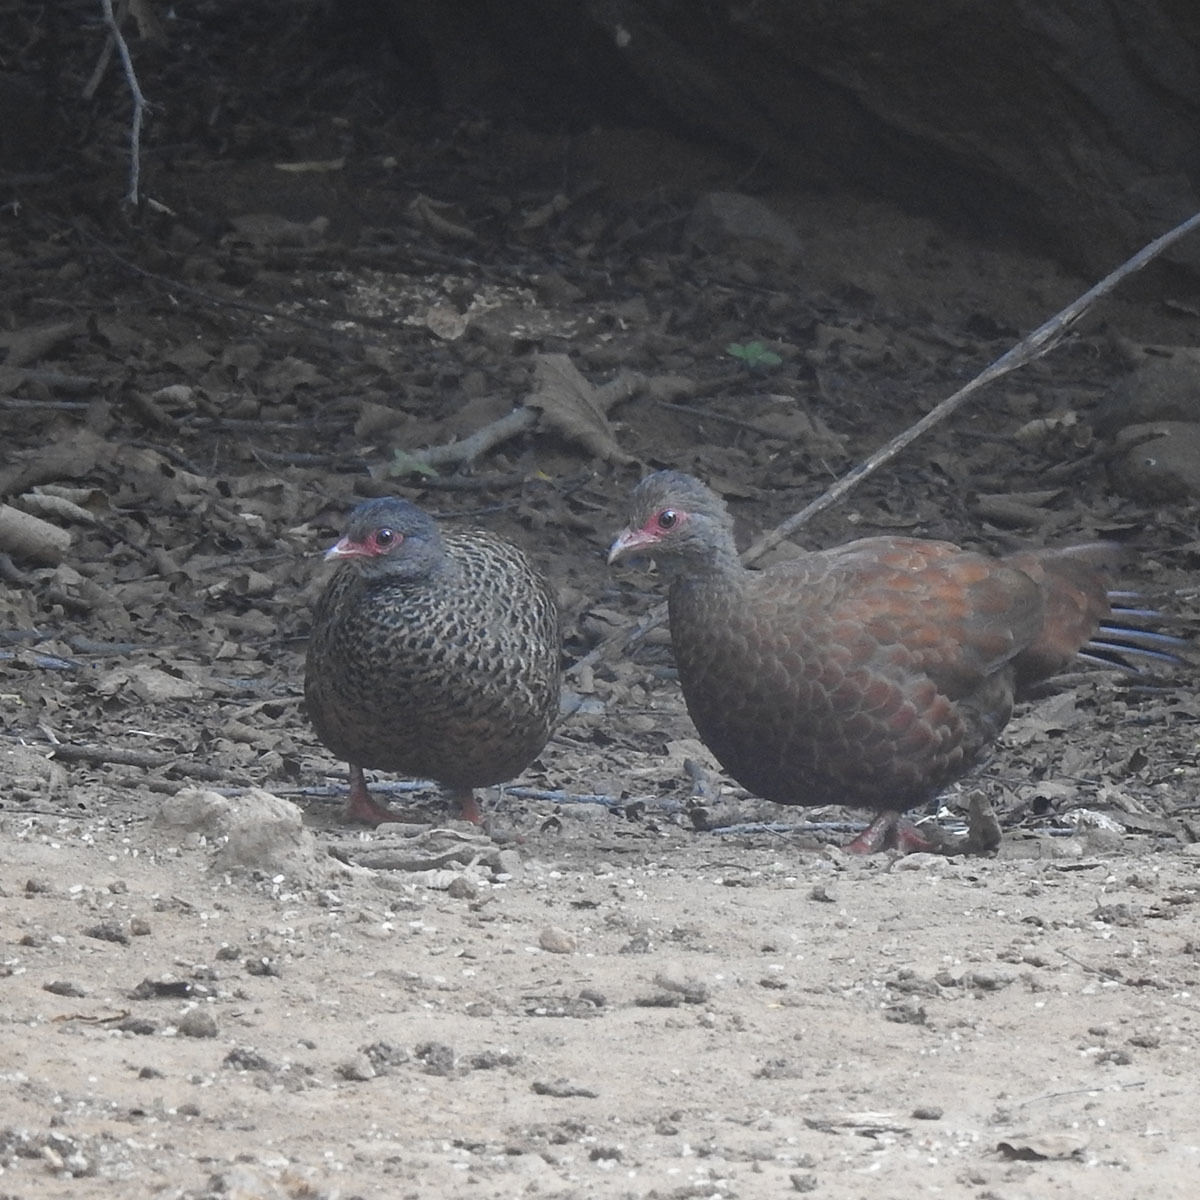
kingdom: Animalia
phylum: Chordata
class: Aves
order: Galliformes
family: Phasianidae
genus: Galloperdix
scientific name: Galloperdix spadicea
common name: Red spurfowl
